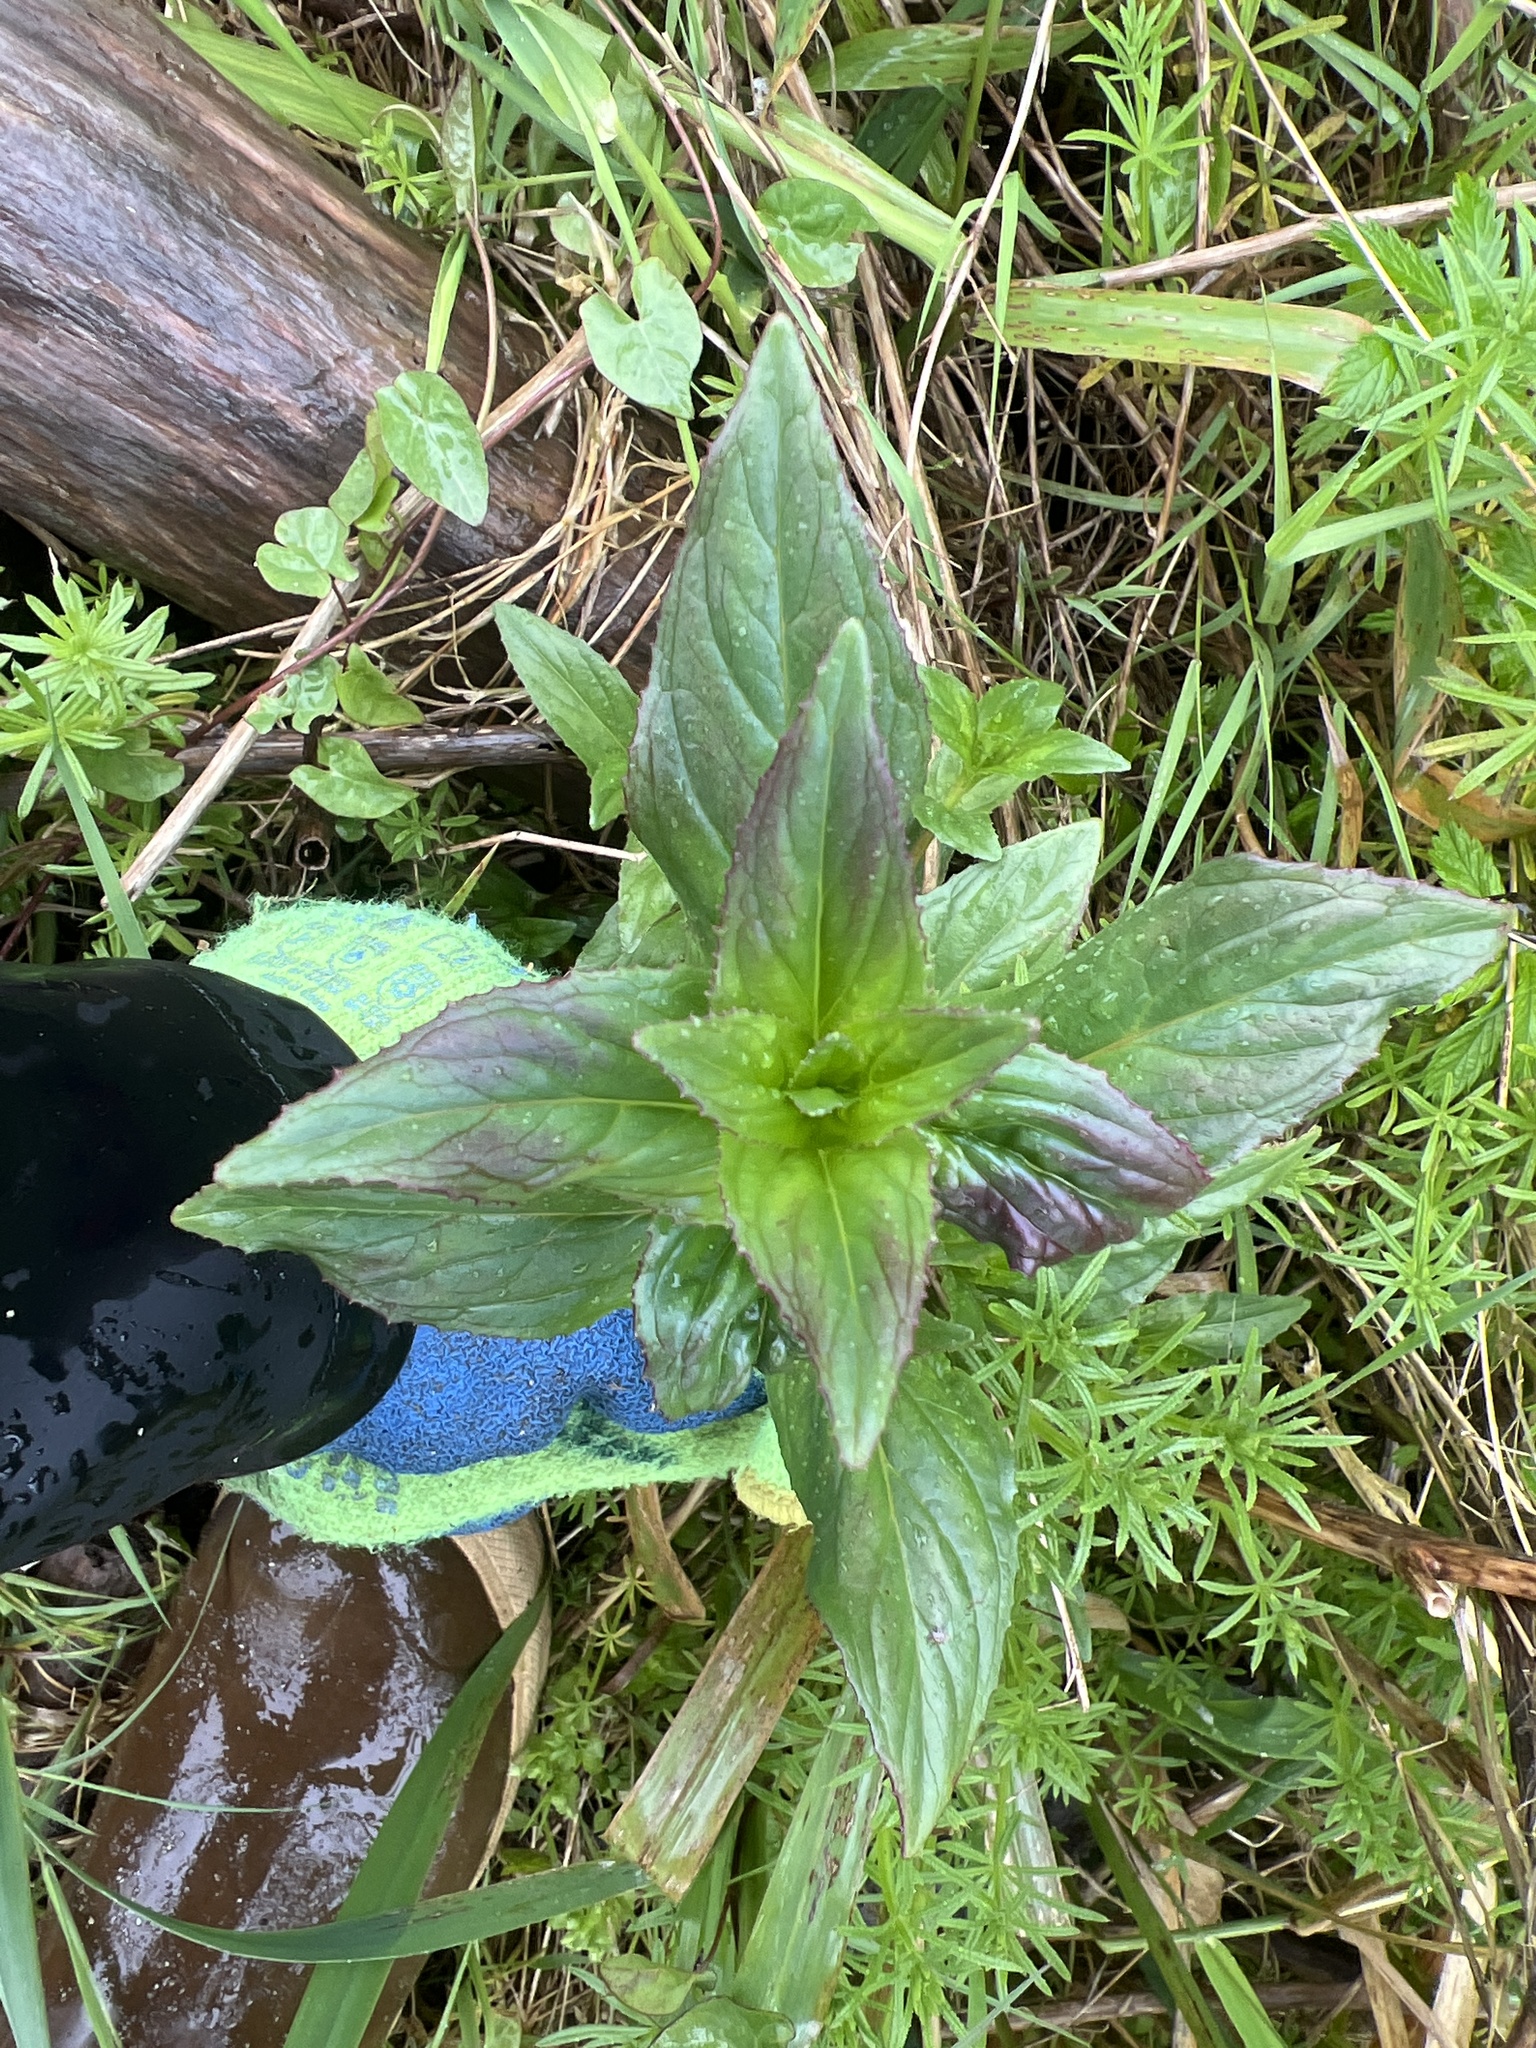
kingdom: Plantae
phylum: Tracheophyta
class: Magnoliopsida
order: Myrtales
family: Onagraceae
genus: Epilobium
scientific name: Epilobium ciliatum
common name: American willowherb
